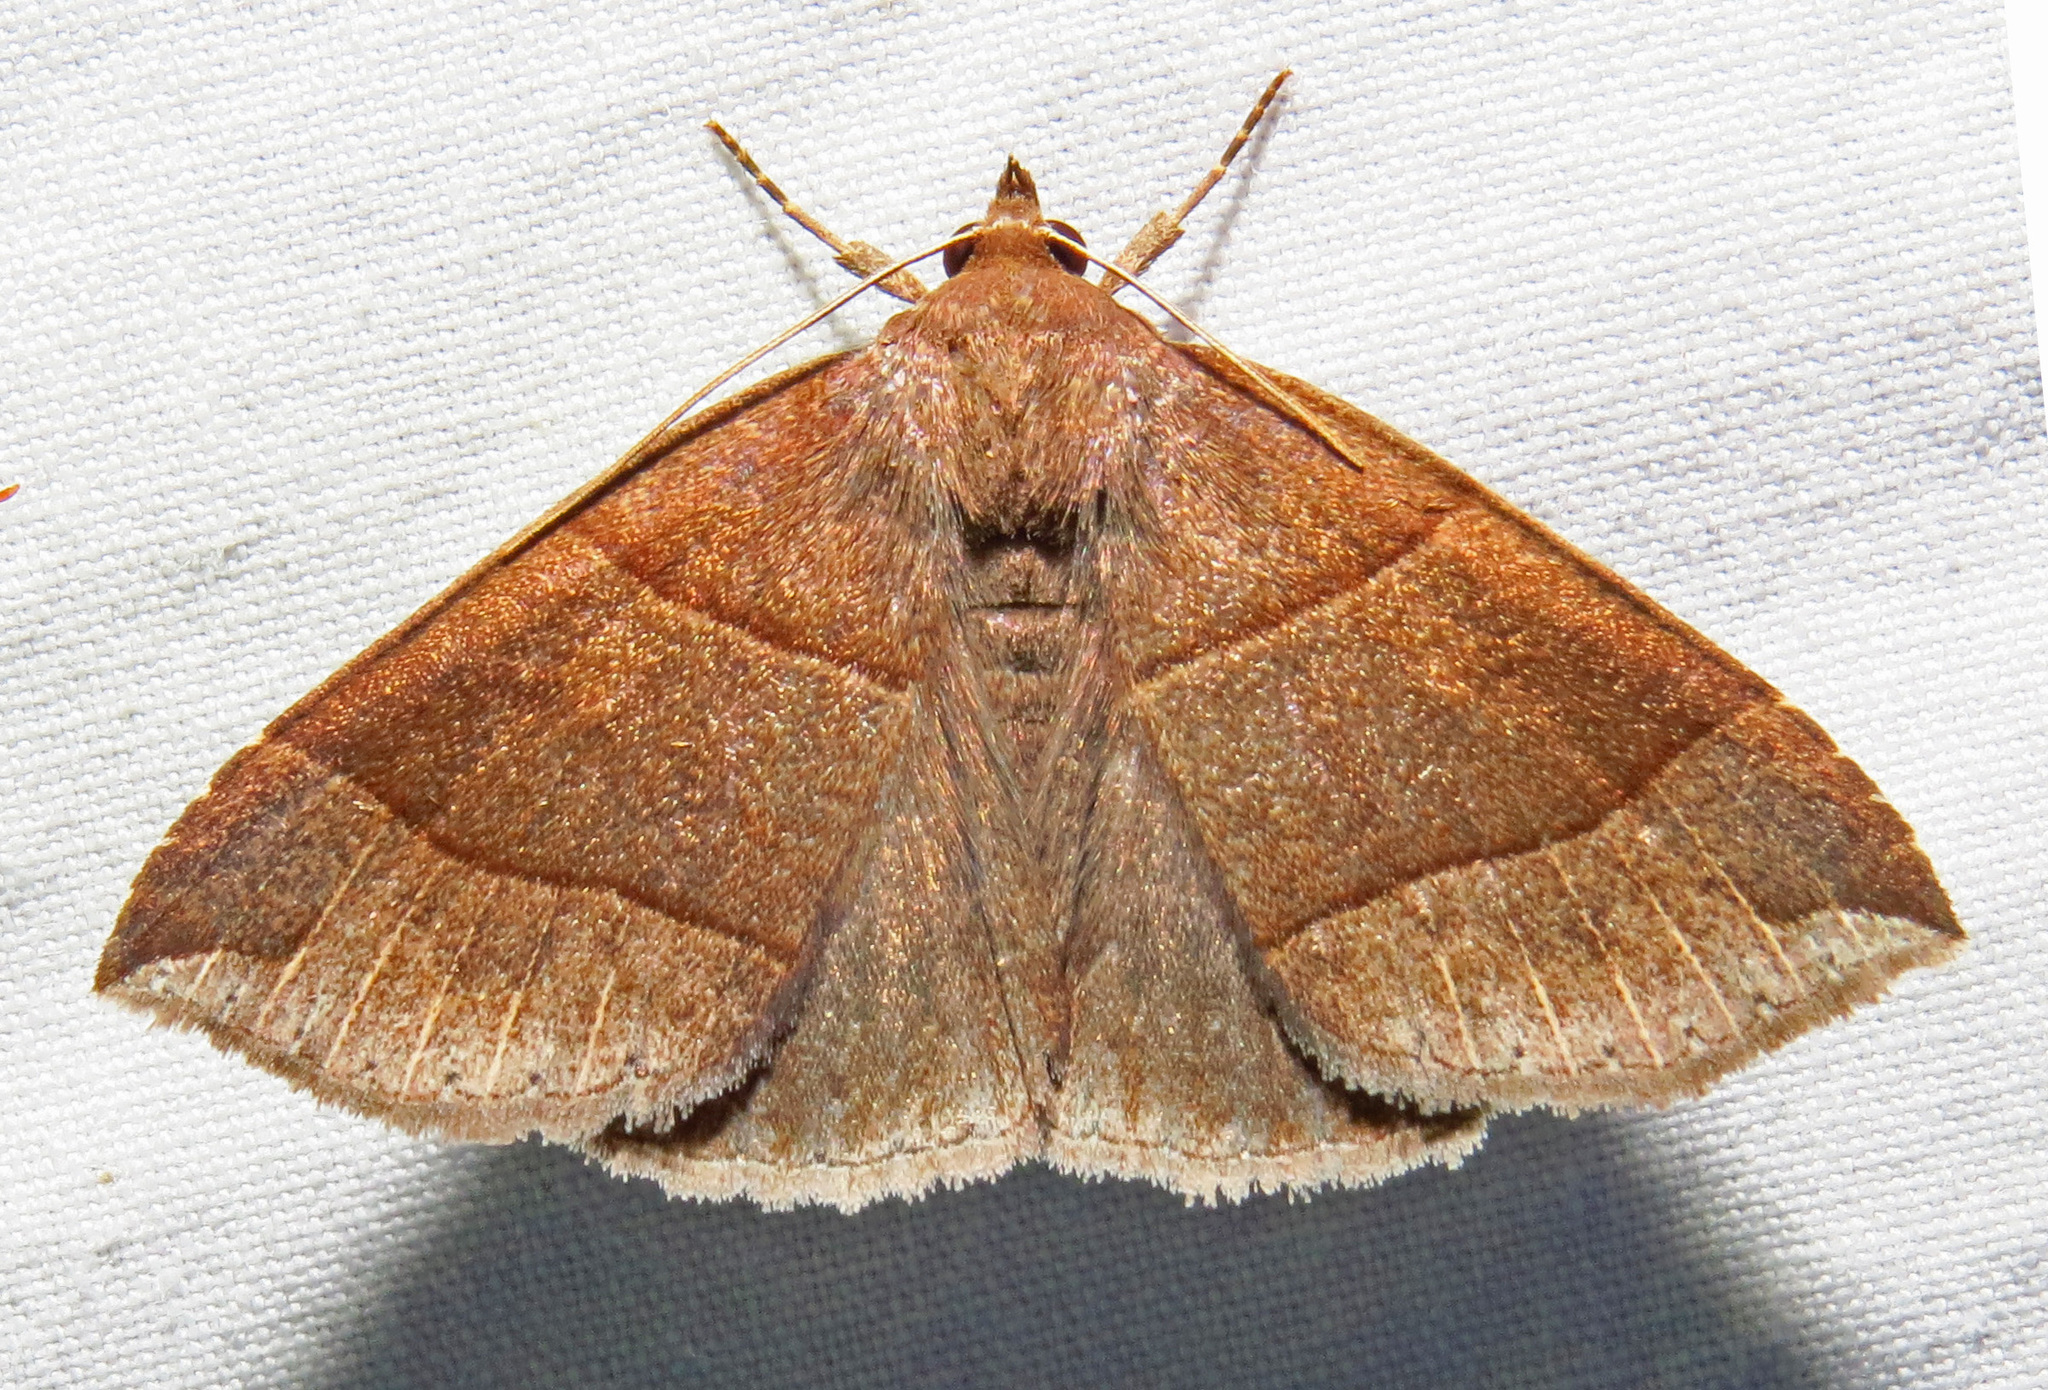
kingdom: Animalia
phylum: Arthropoda
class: Insecta
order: Lepidoptera
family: Erebidae
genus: Parallelia
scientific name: Parallelia bistriaris
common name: Maple looper moth
